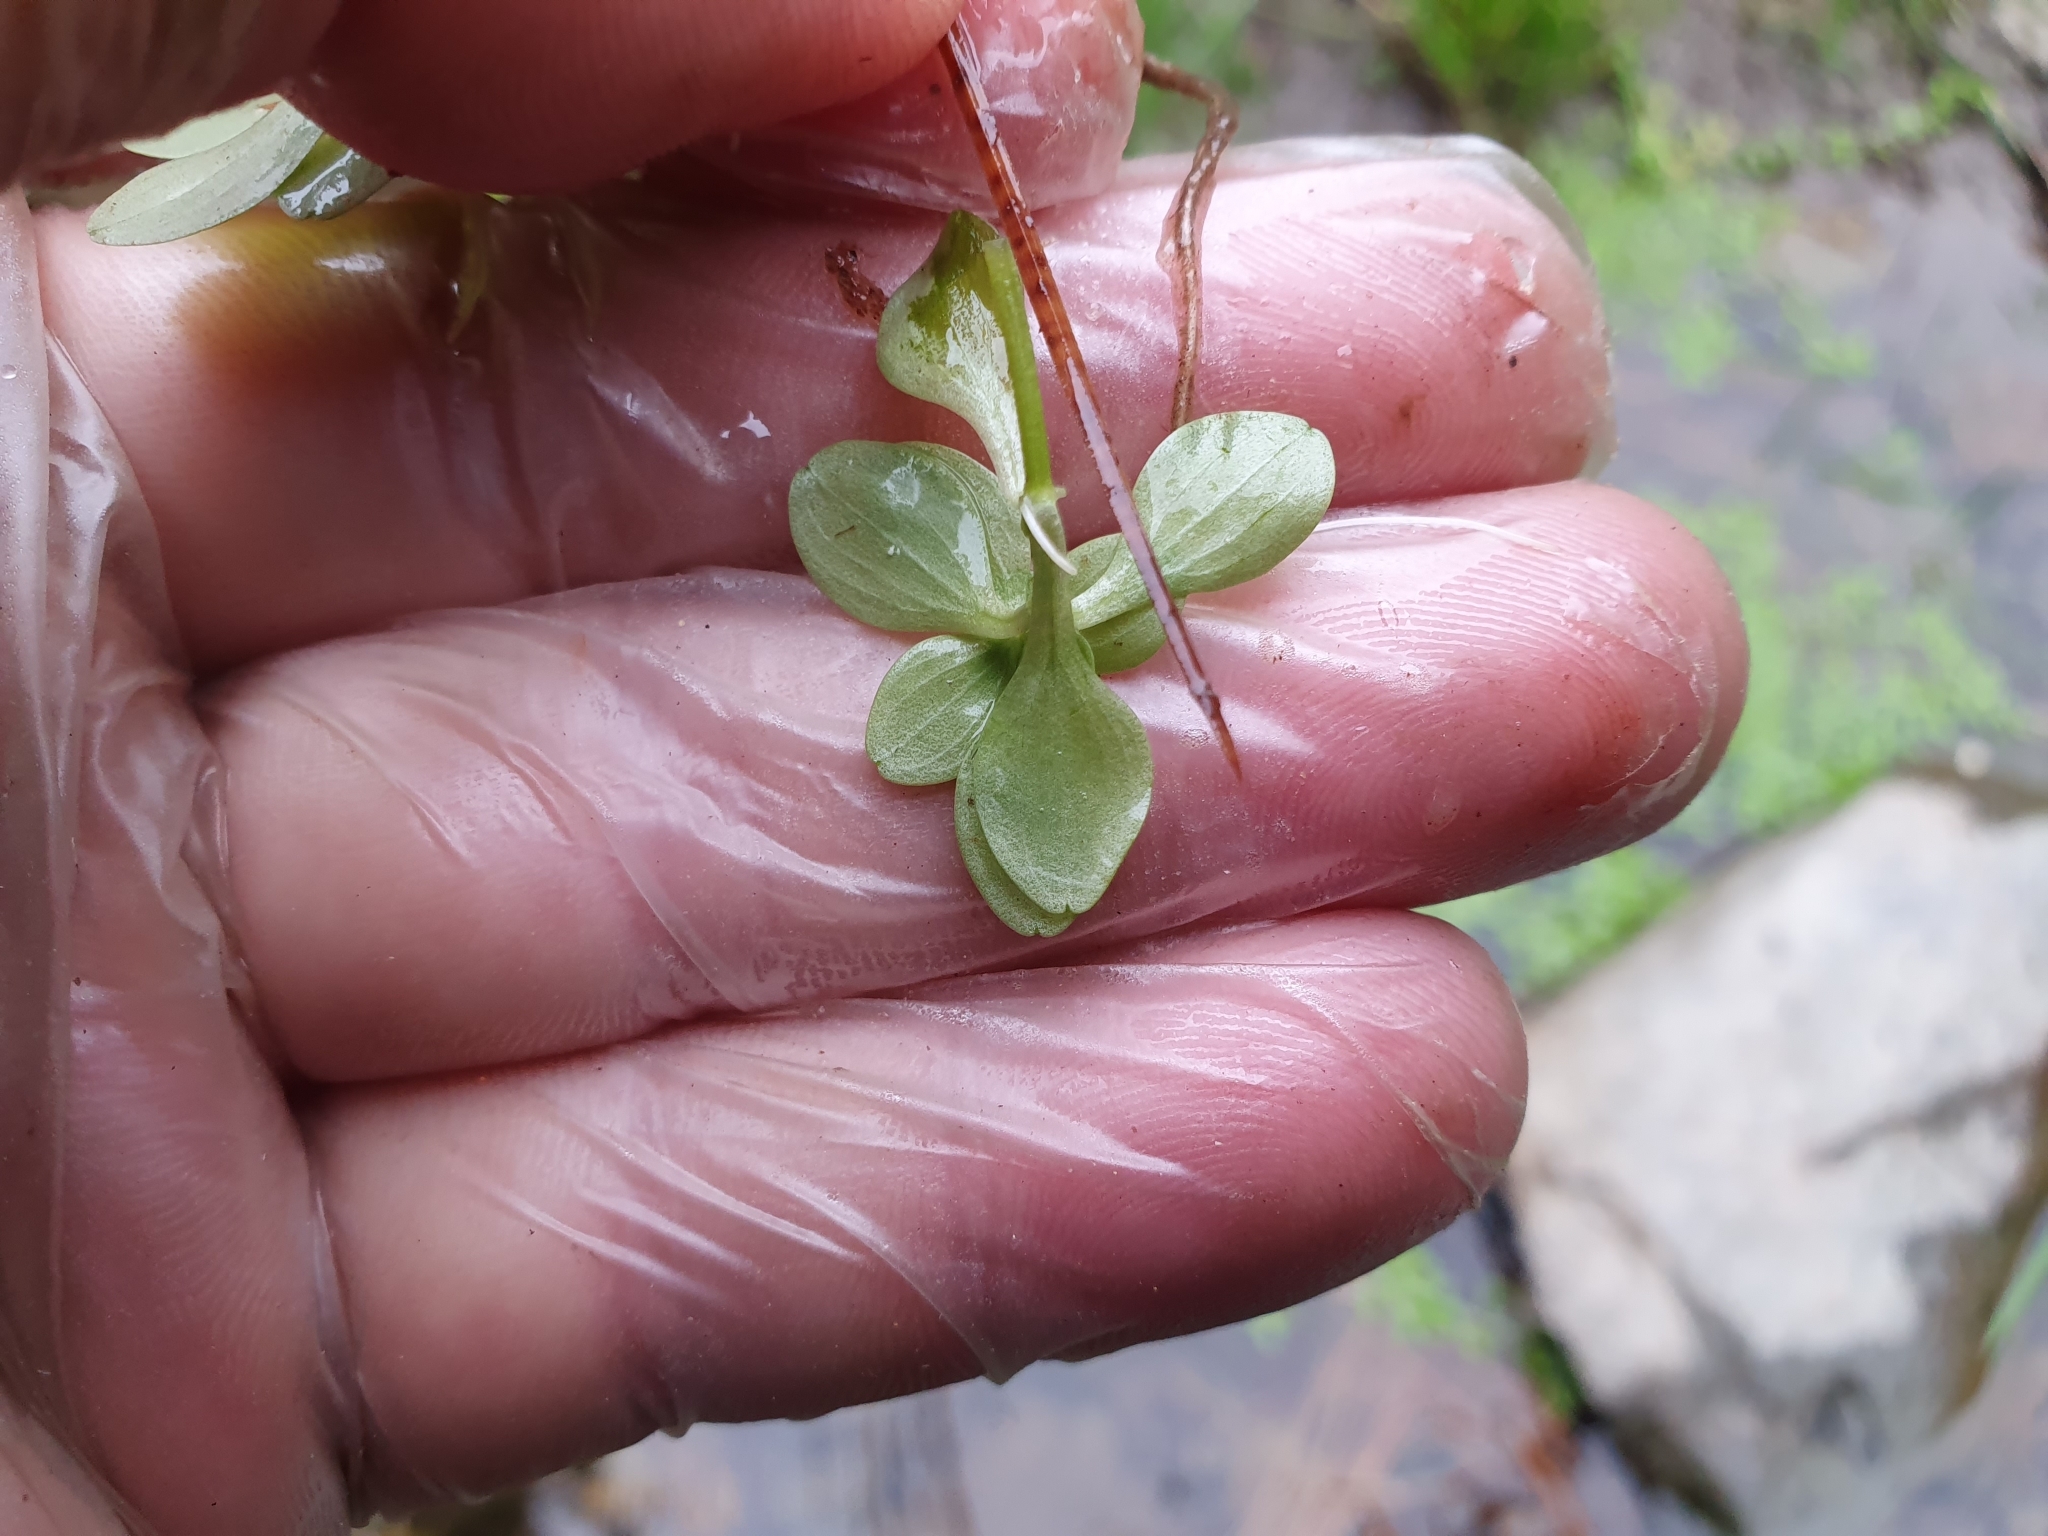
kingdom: Plantae
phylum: Tracheophyta
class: Magnoliopsida
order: Lamiales
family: Plantaginaceae
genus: Callitriche
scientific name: Callitriche stagnalis
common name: Common water-starwort
